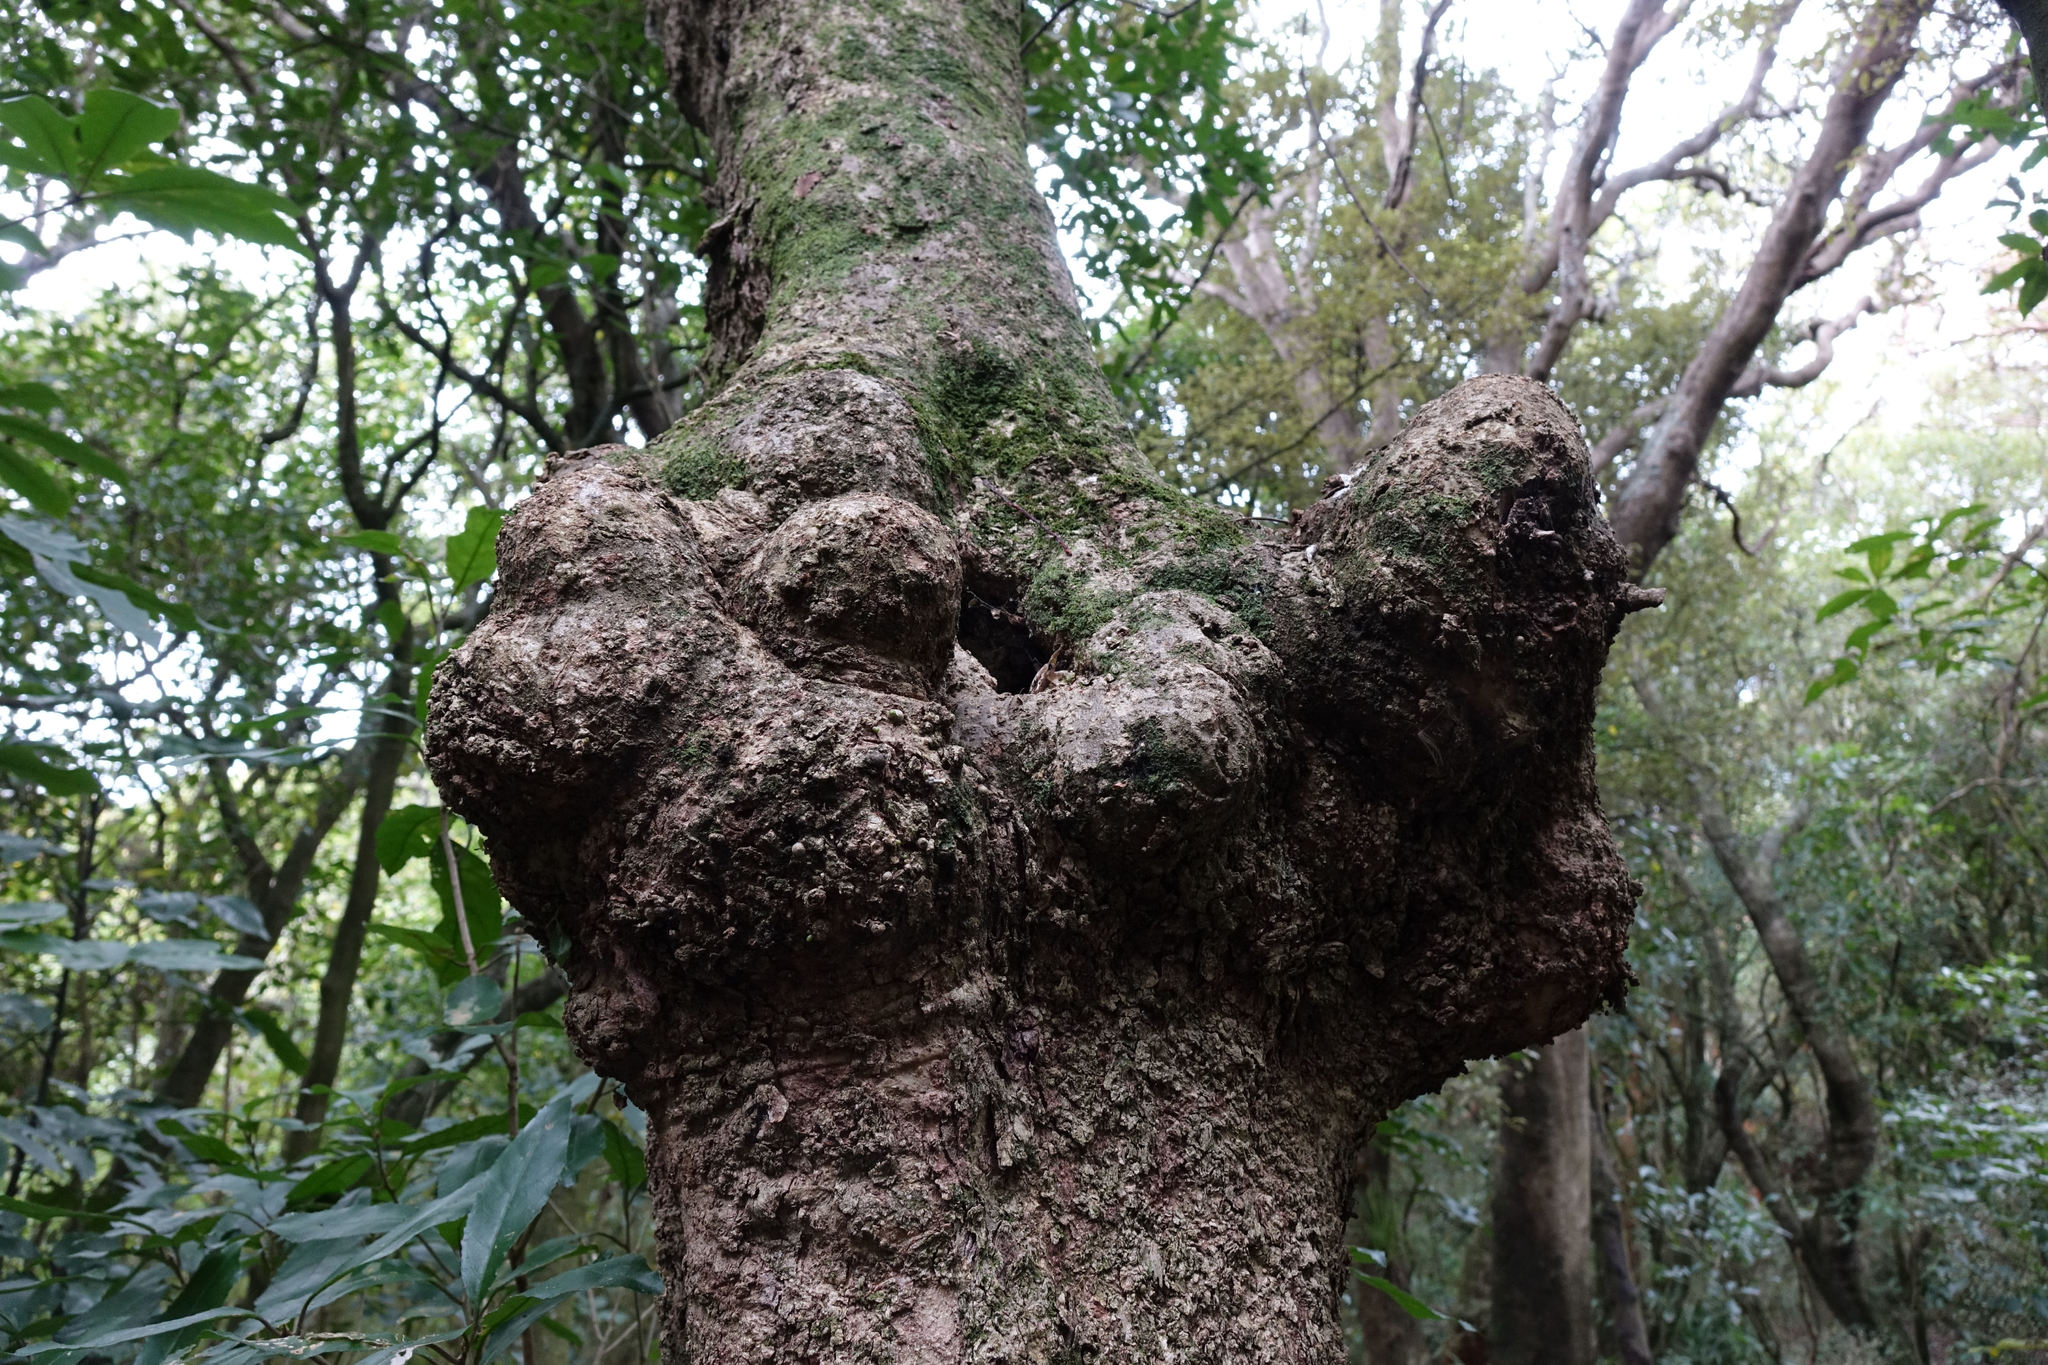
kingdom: Plantae
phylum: Tracheophyta
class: Magnoliopsida
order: Santalales
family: Loranthaceae
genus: Tupeia
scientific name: Tupeia antarctica
